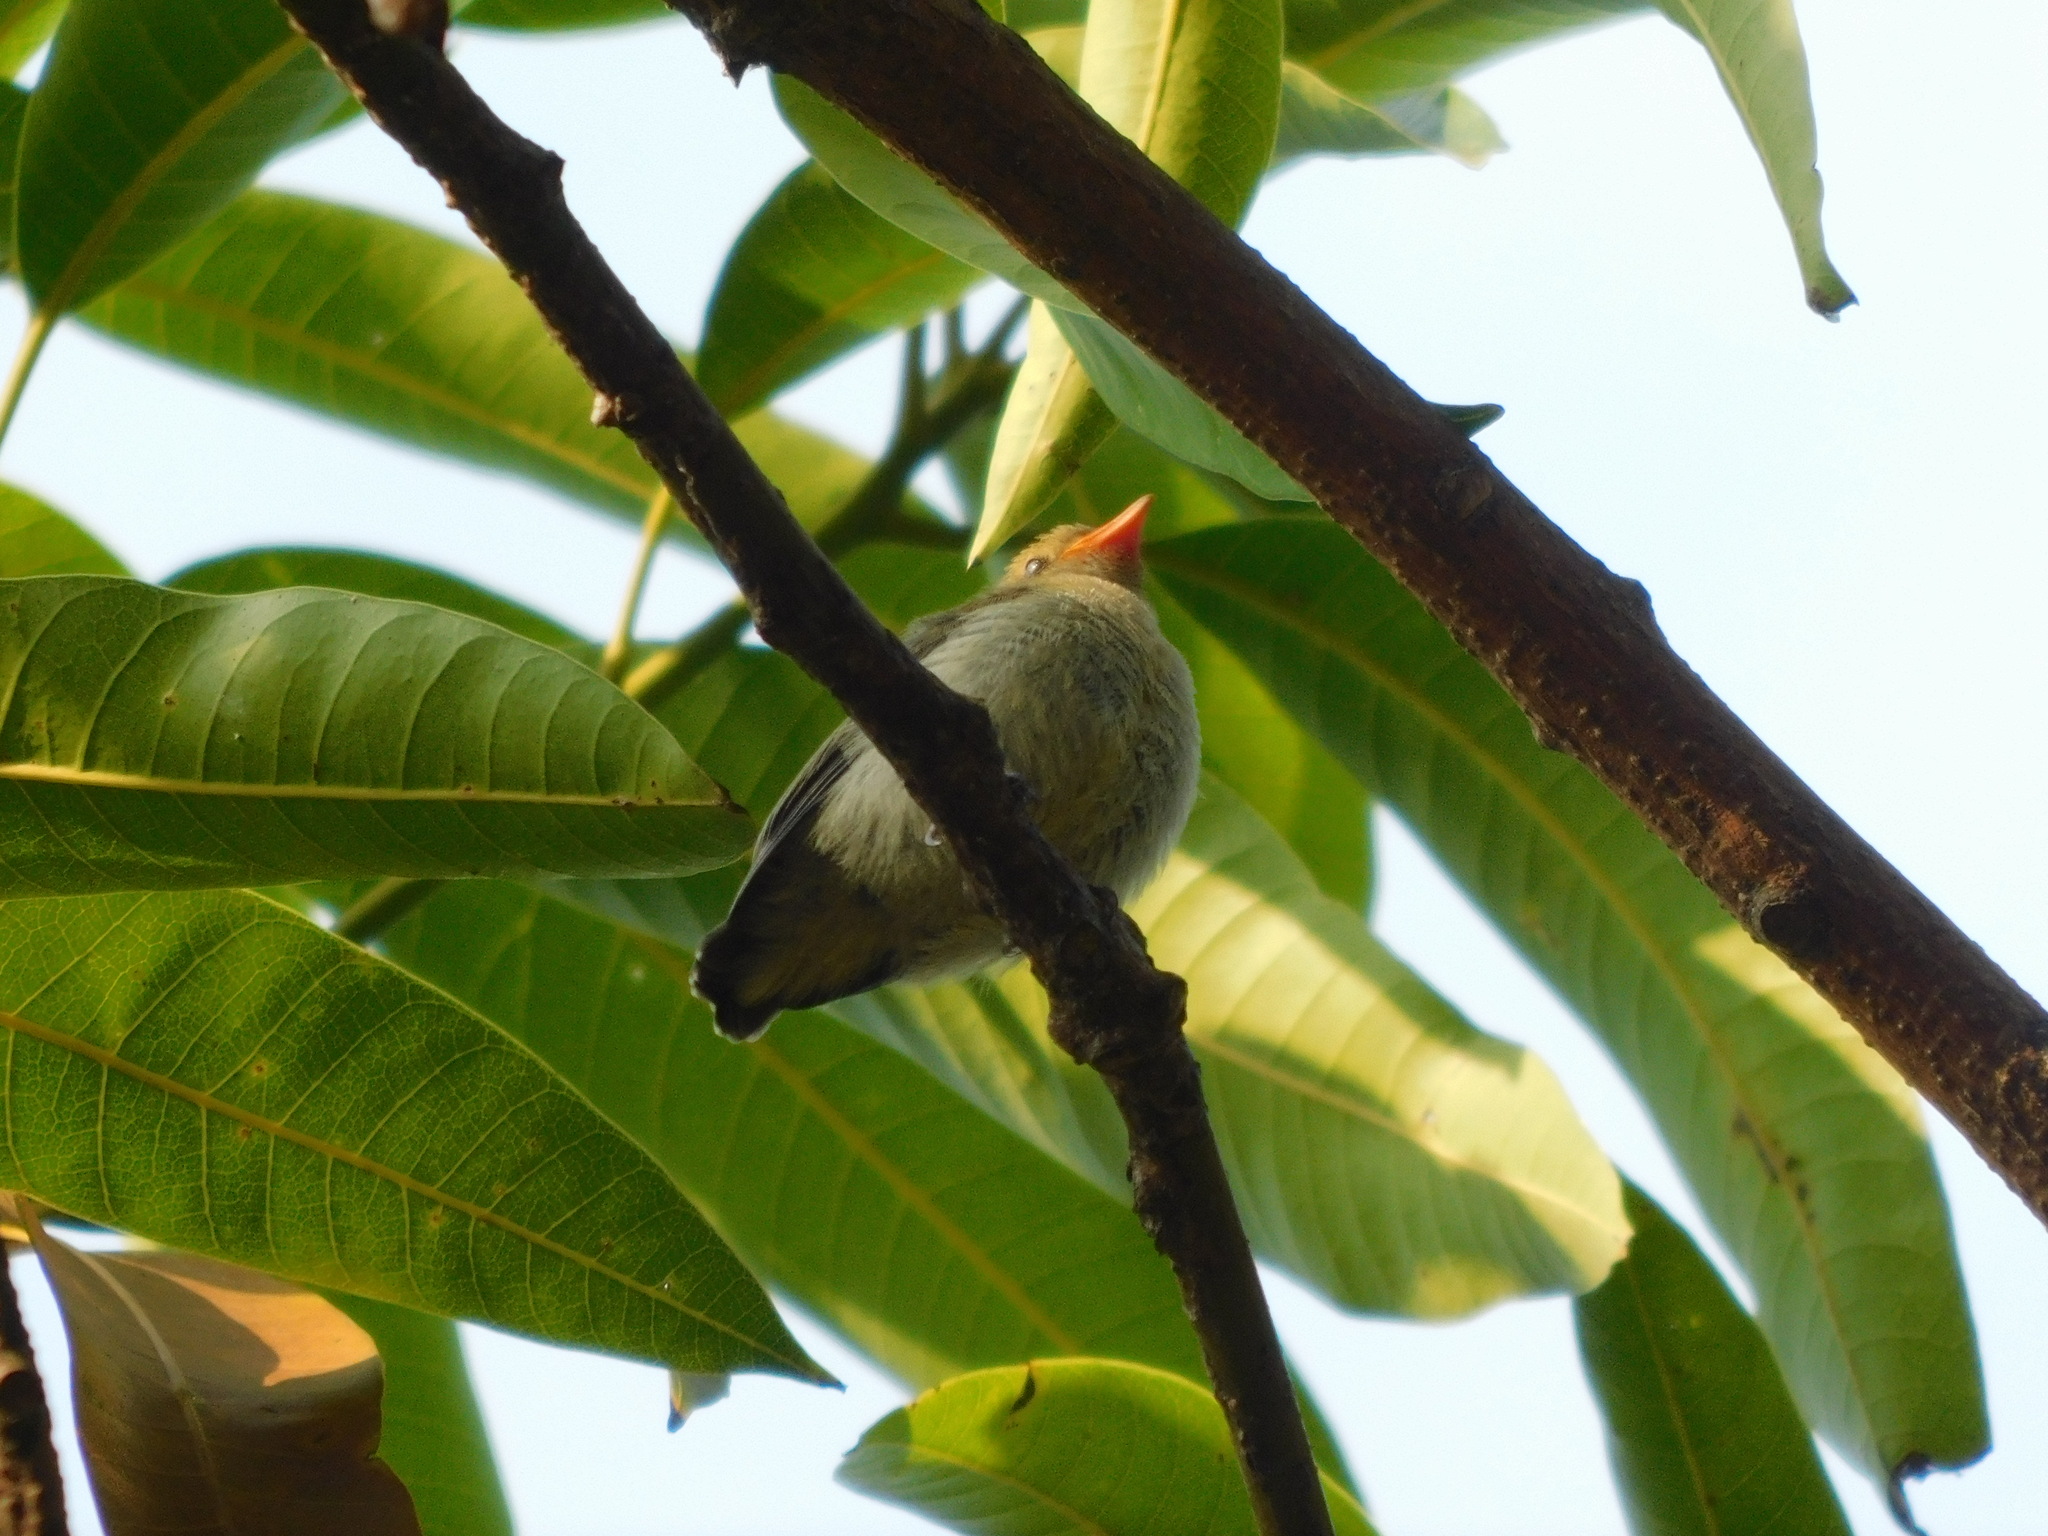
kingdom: Animalia
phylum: Chordata
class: Aves
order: Passeriformes
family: Dicaeidae
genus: Dicaeum
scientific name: Dicaeum trochileum
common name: Scarlet-headed flowerpecker
